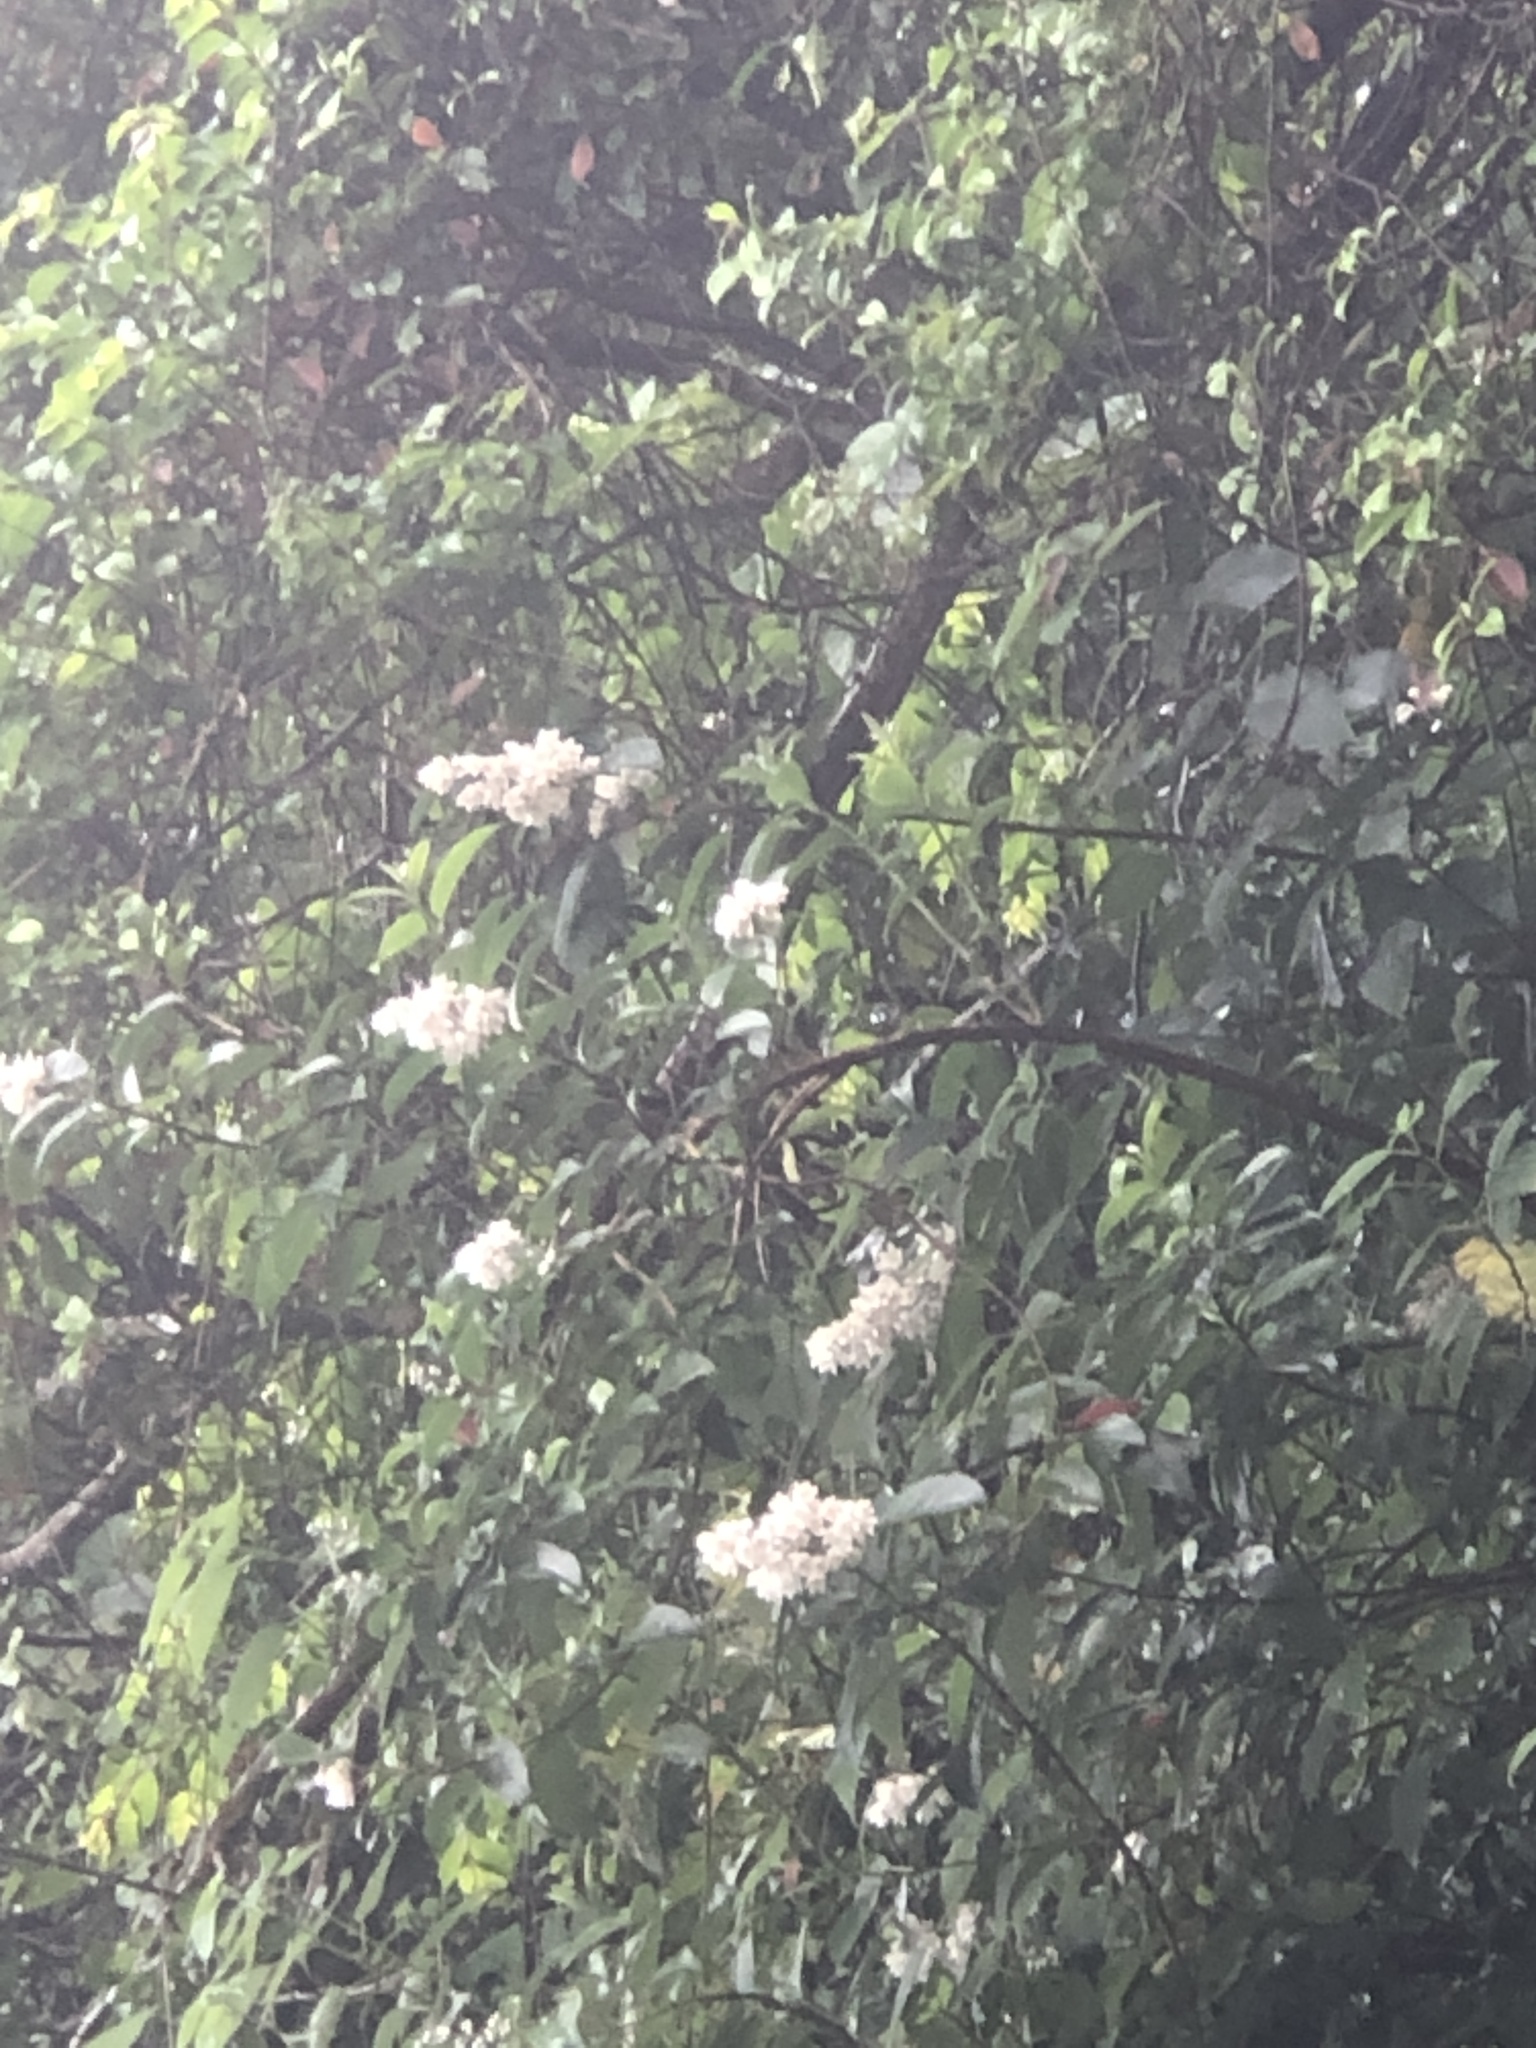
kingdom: Plantae
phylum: Tracheophyta
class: Magnoliopsida
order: Cornales
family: Hydrangeaceae
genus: Deutzia
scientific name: Deutzia pulchra
